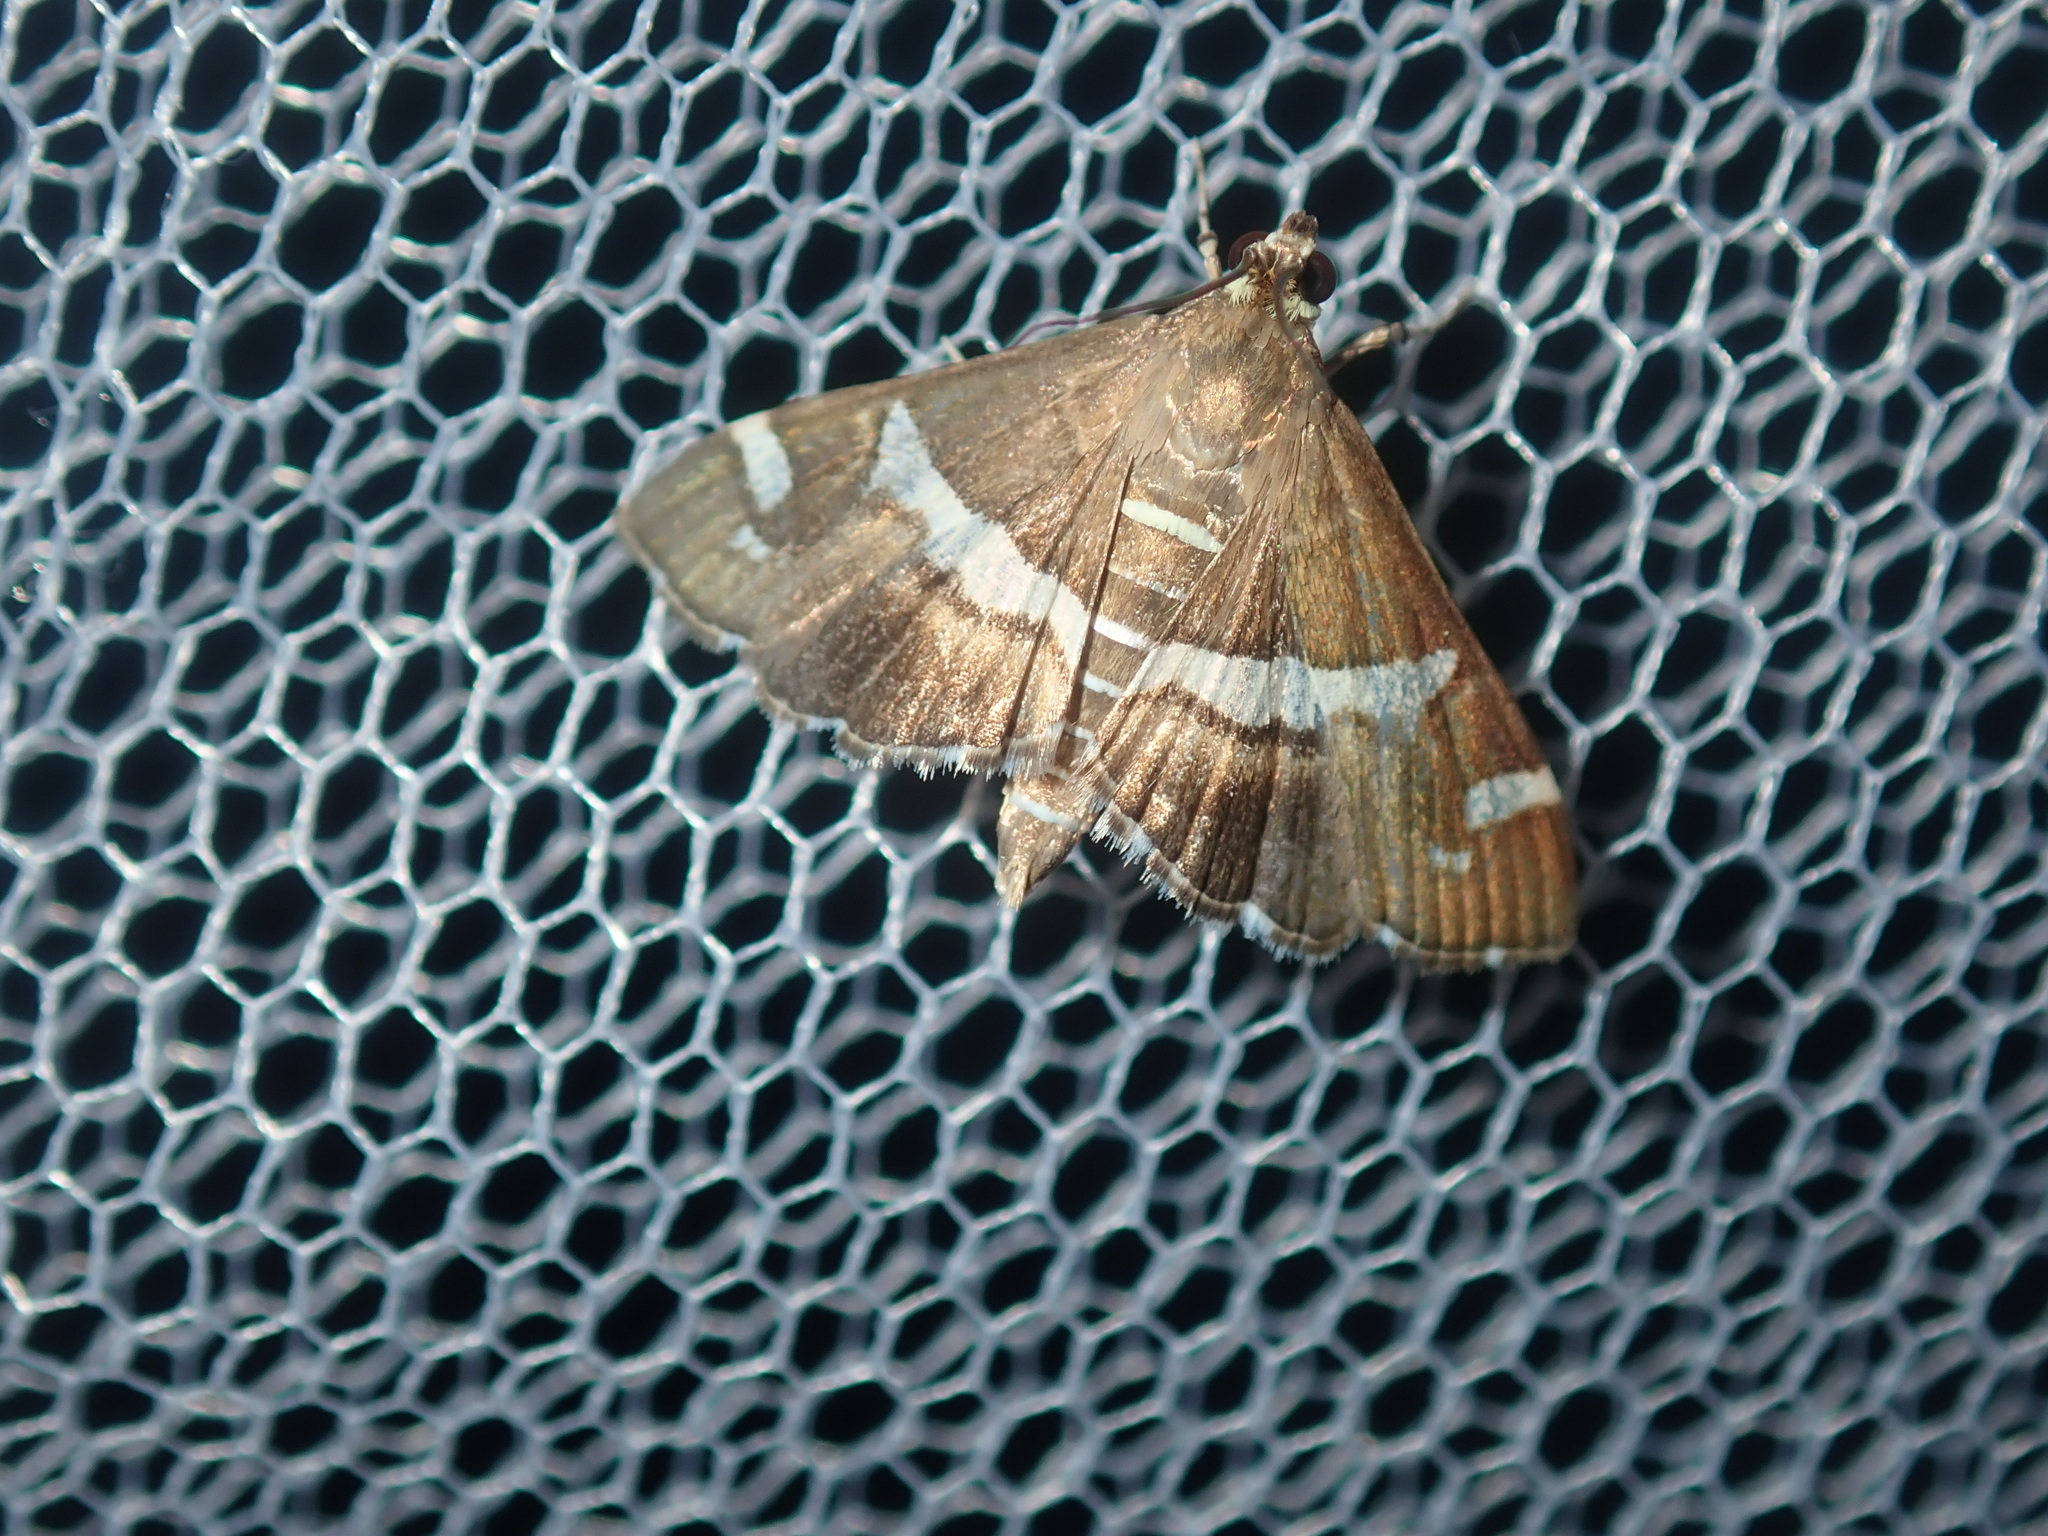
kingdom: Animalia
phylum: Arthropoda
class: Insecta
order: Lepidoptera
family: Crambidae
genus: Spoladea
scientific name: Spoladea recurvalis
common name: Beet webworm moth
